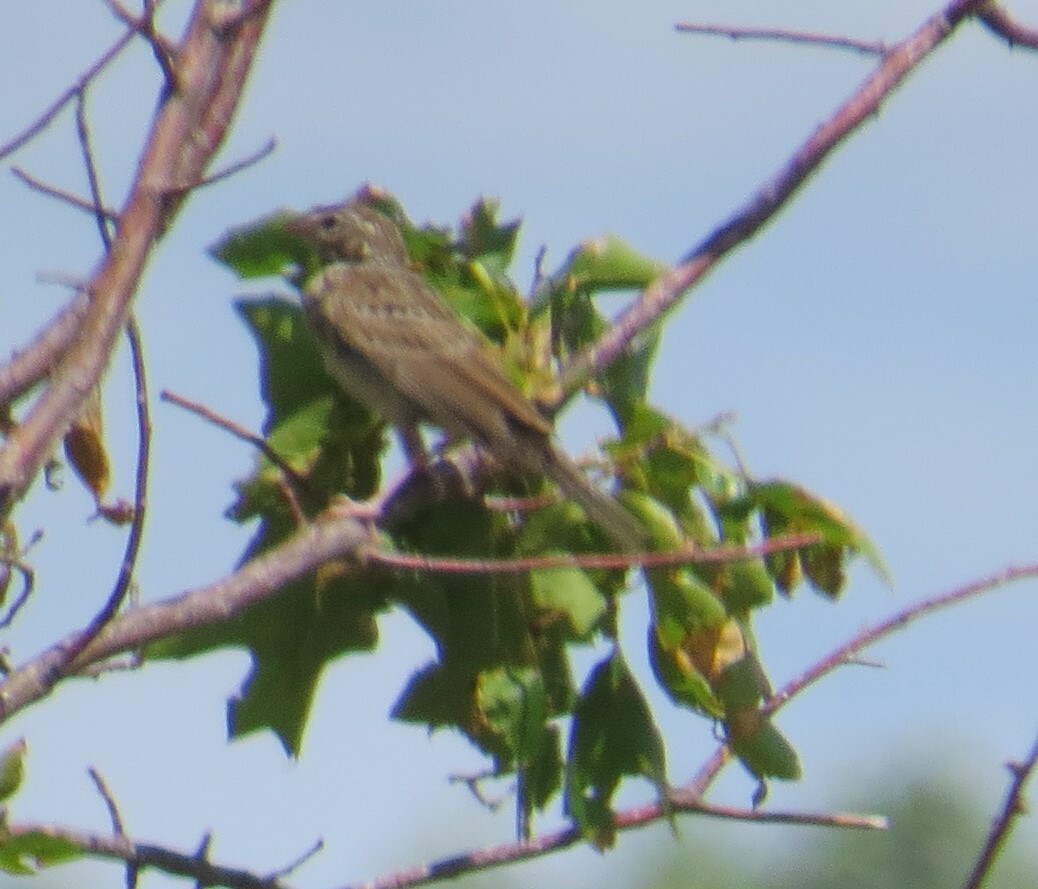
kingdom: Animalia
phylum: Chordata
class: Aves
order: Passeriformes
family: Passerellidae
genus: Pooecetes
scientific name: Pooecetes gramineus
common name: Vesper sparrow
